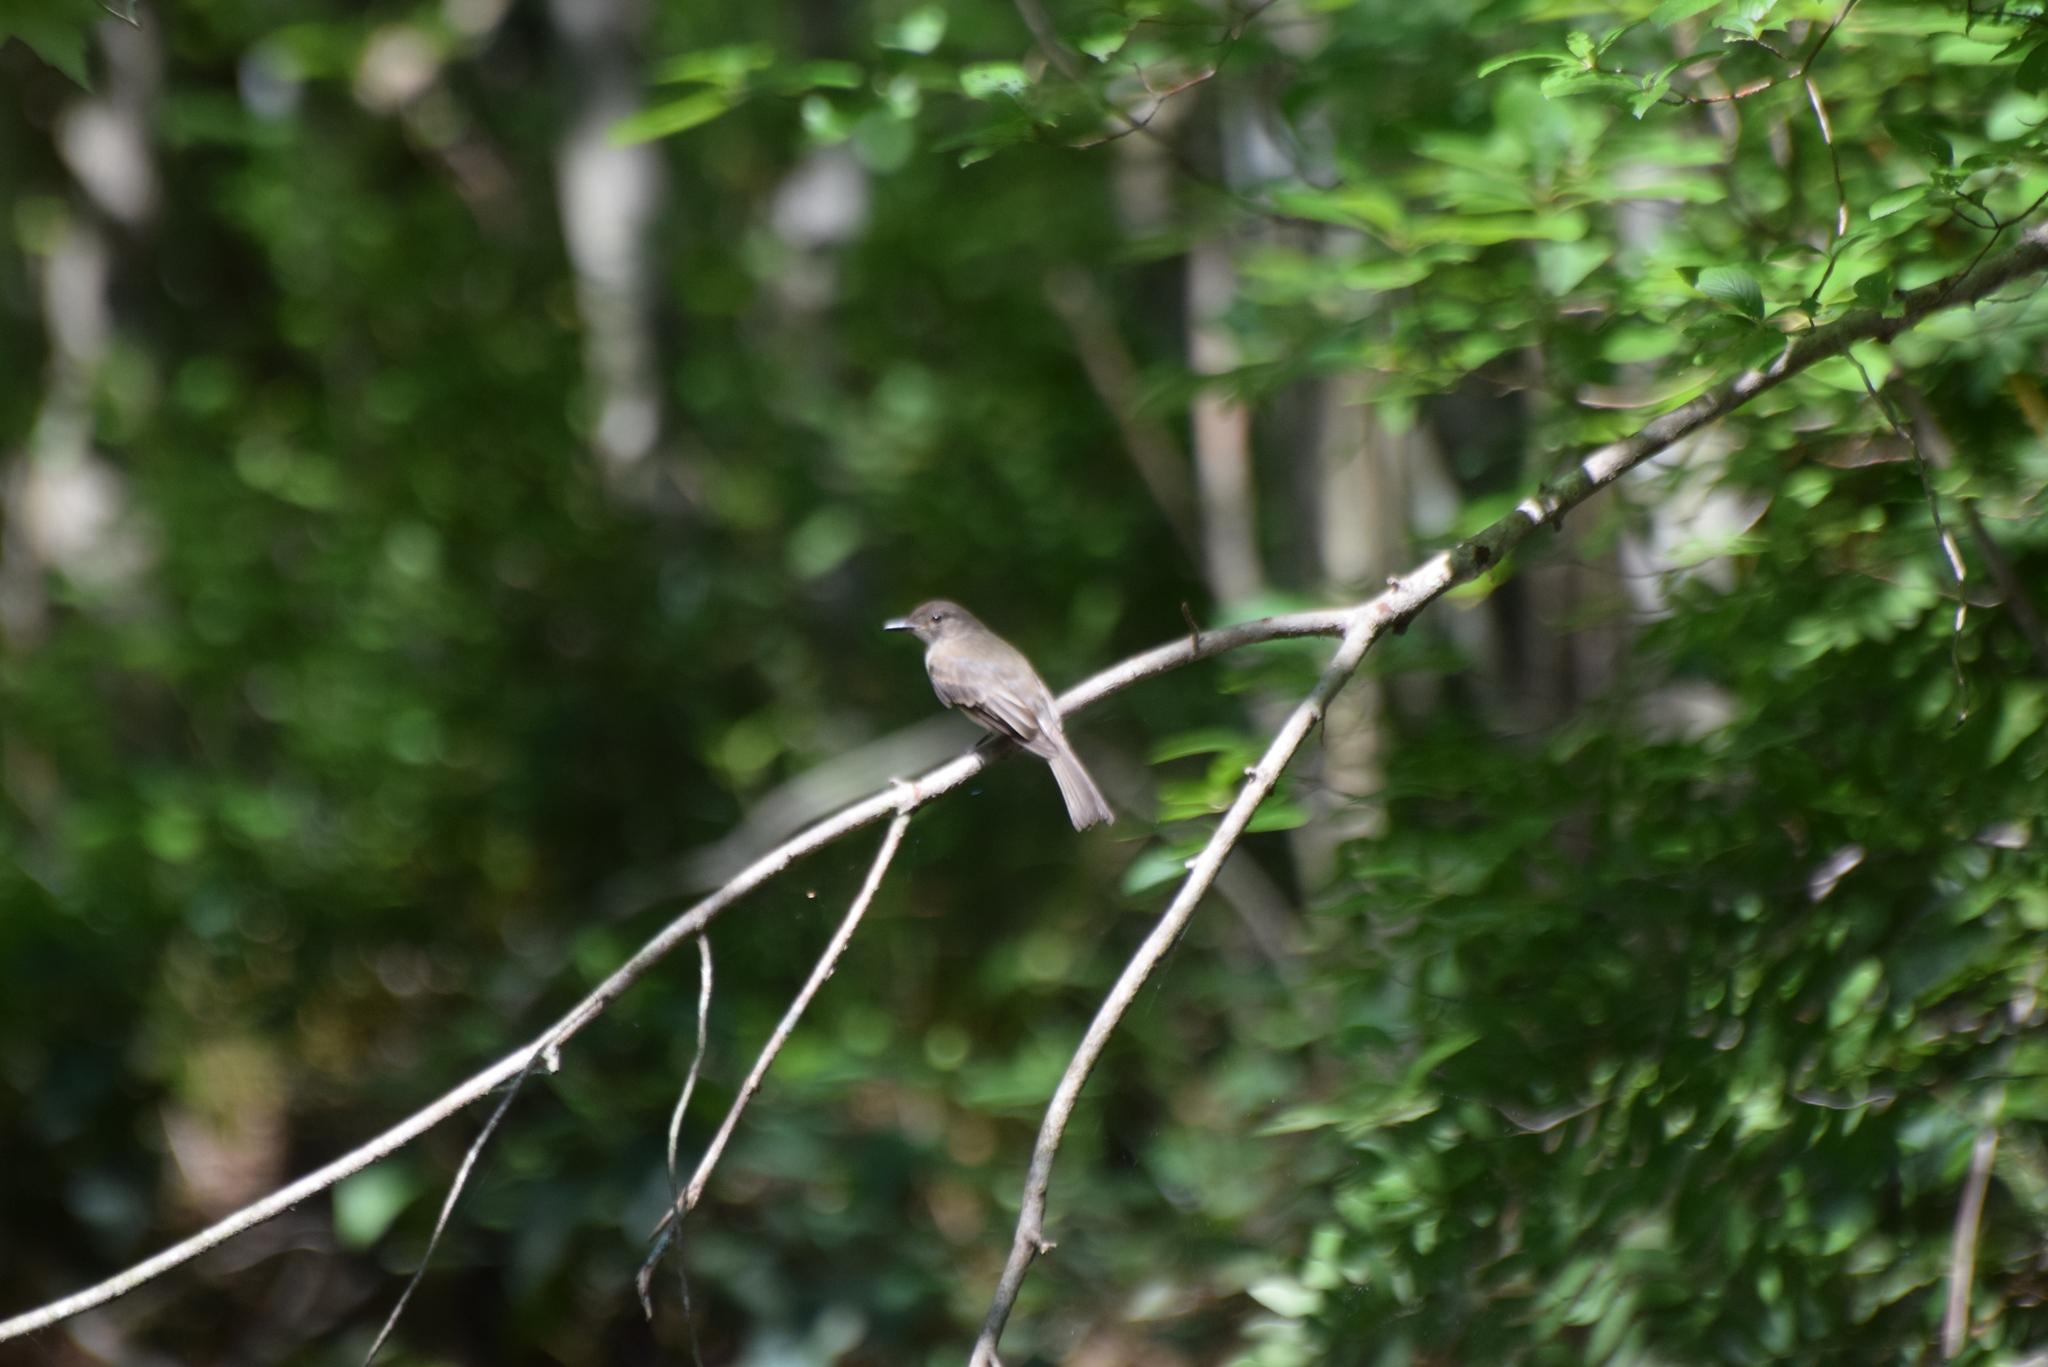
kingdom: Animalia
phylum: Chordata
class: Aves
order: Passeriformes
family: Tyrannidae
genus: Sayornis
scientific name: Sayornis phoebe
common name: Eastern phoebe
